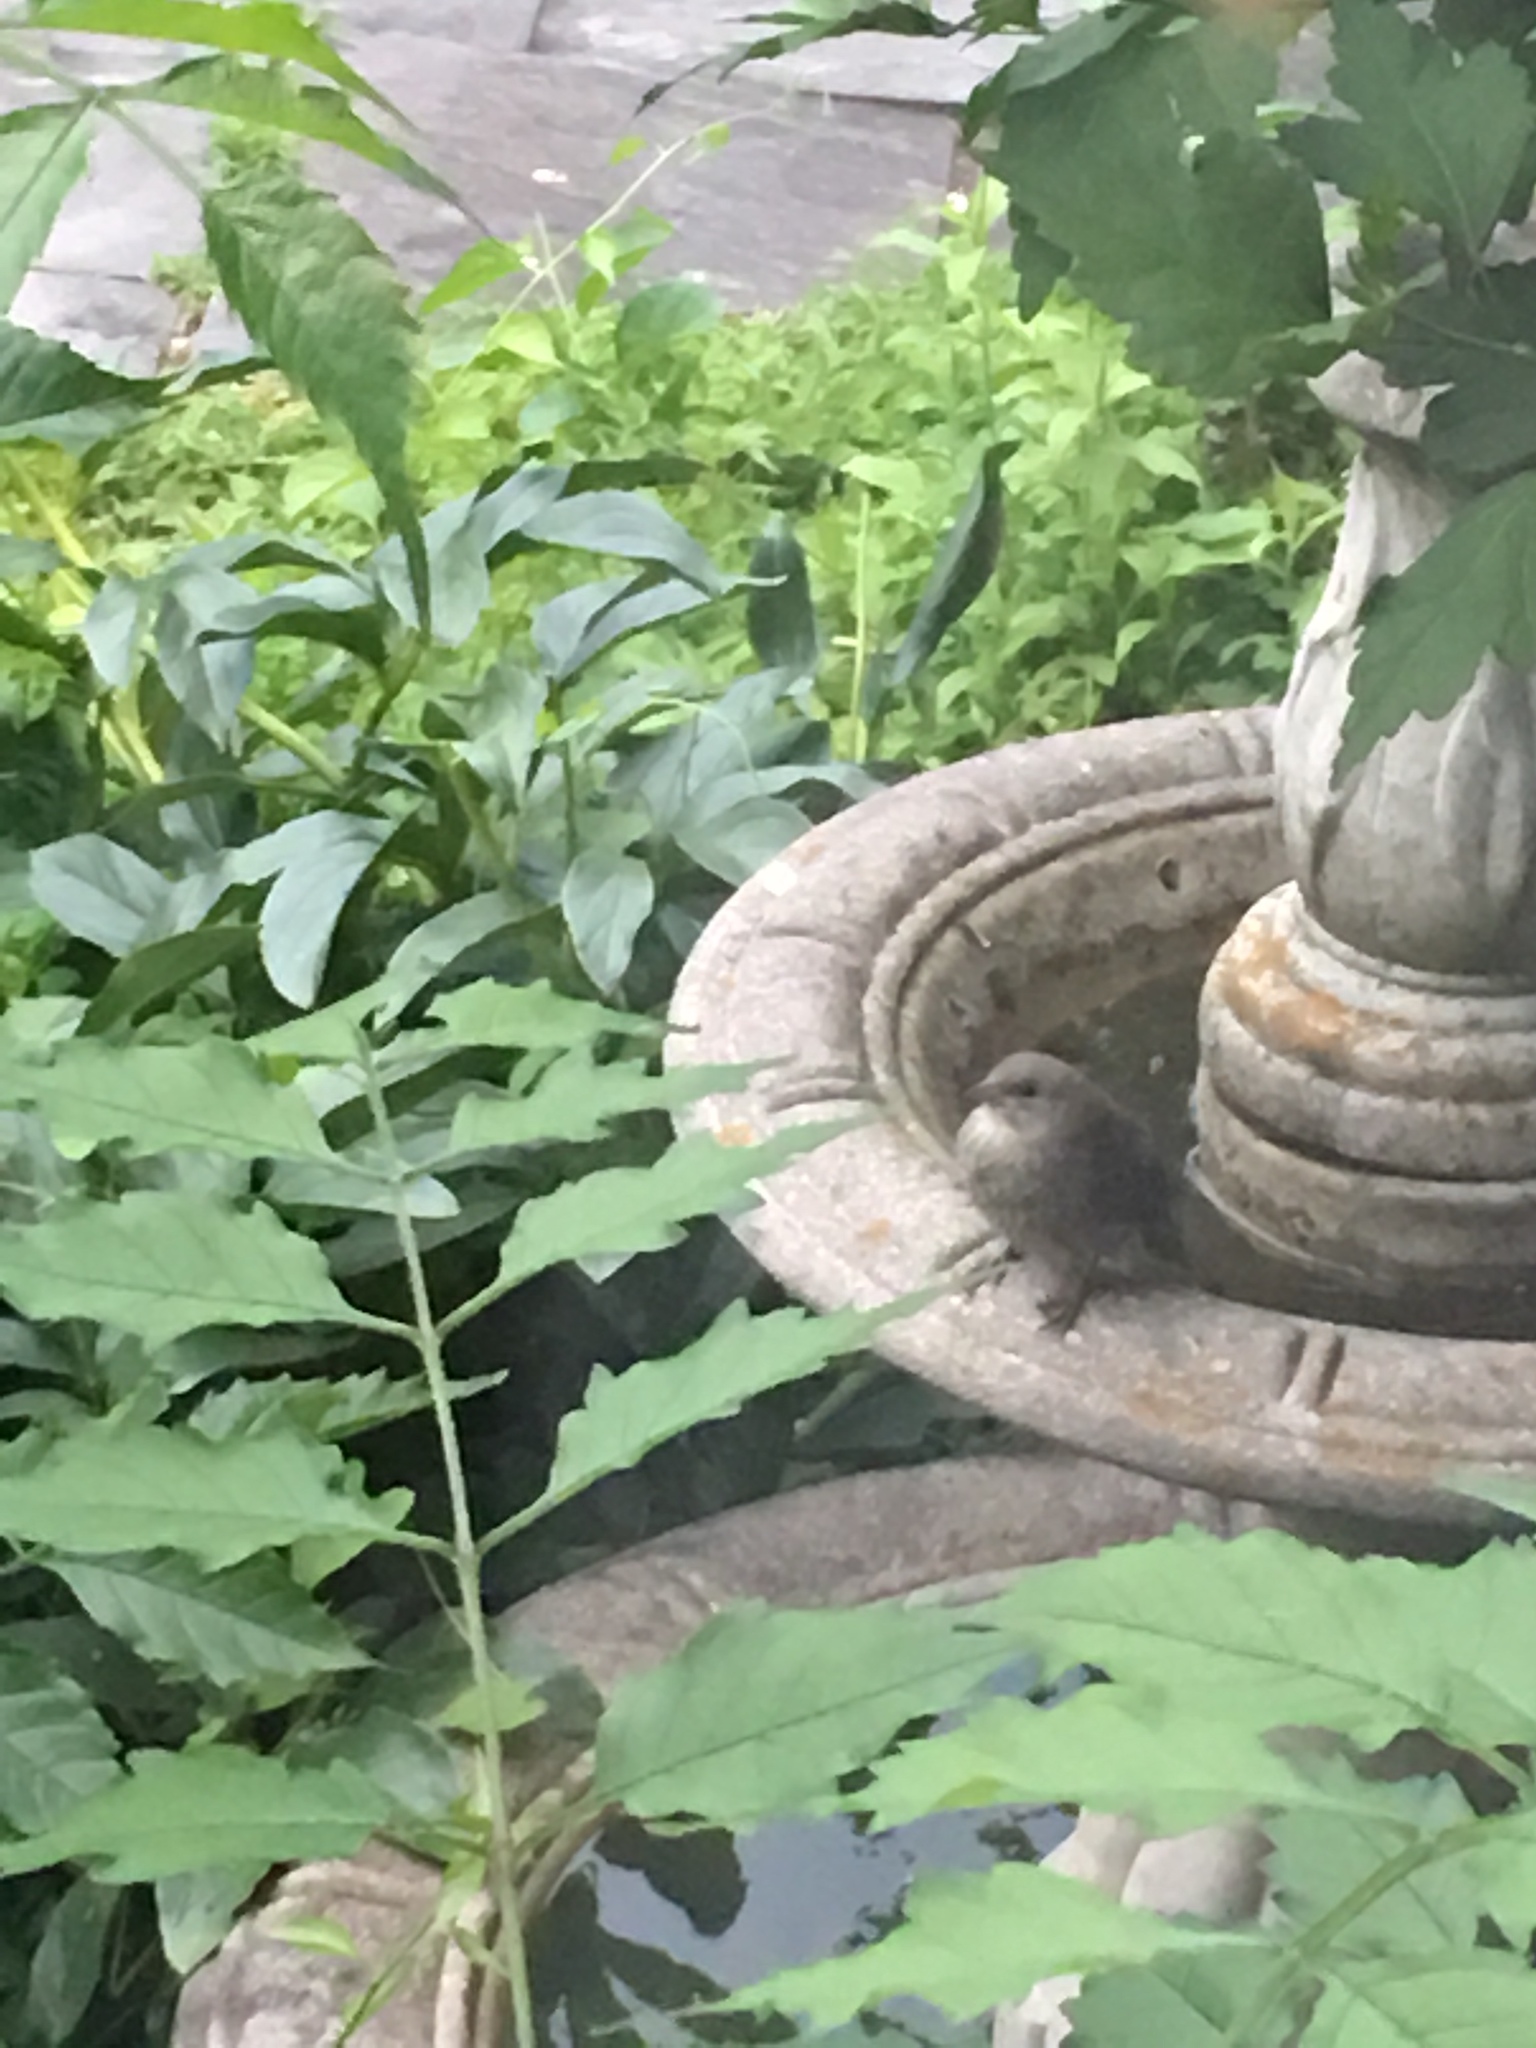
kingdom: Animalia
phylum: Chordata
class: Aves
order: Passeriformes
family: Icteridae
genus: Molothrus
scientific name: Molothrus ater
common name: Brown-headed cowbird
